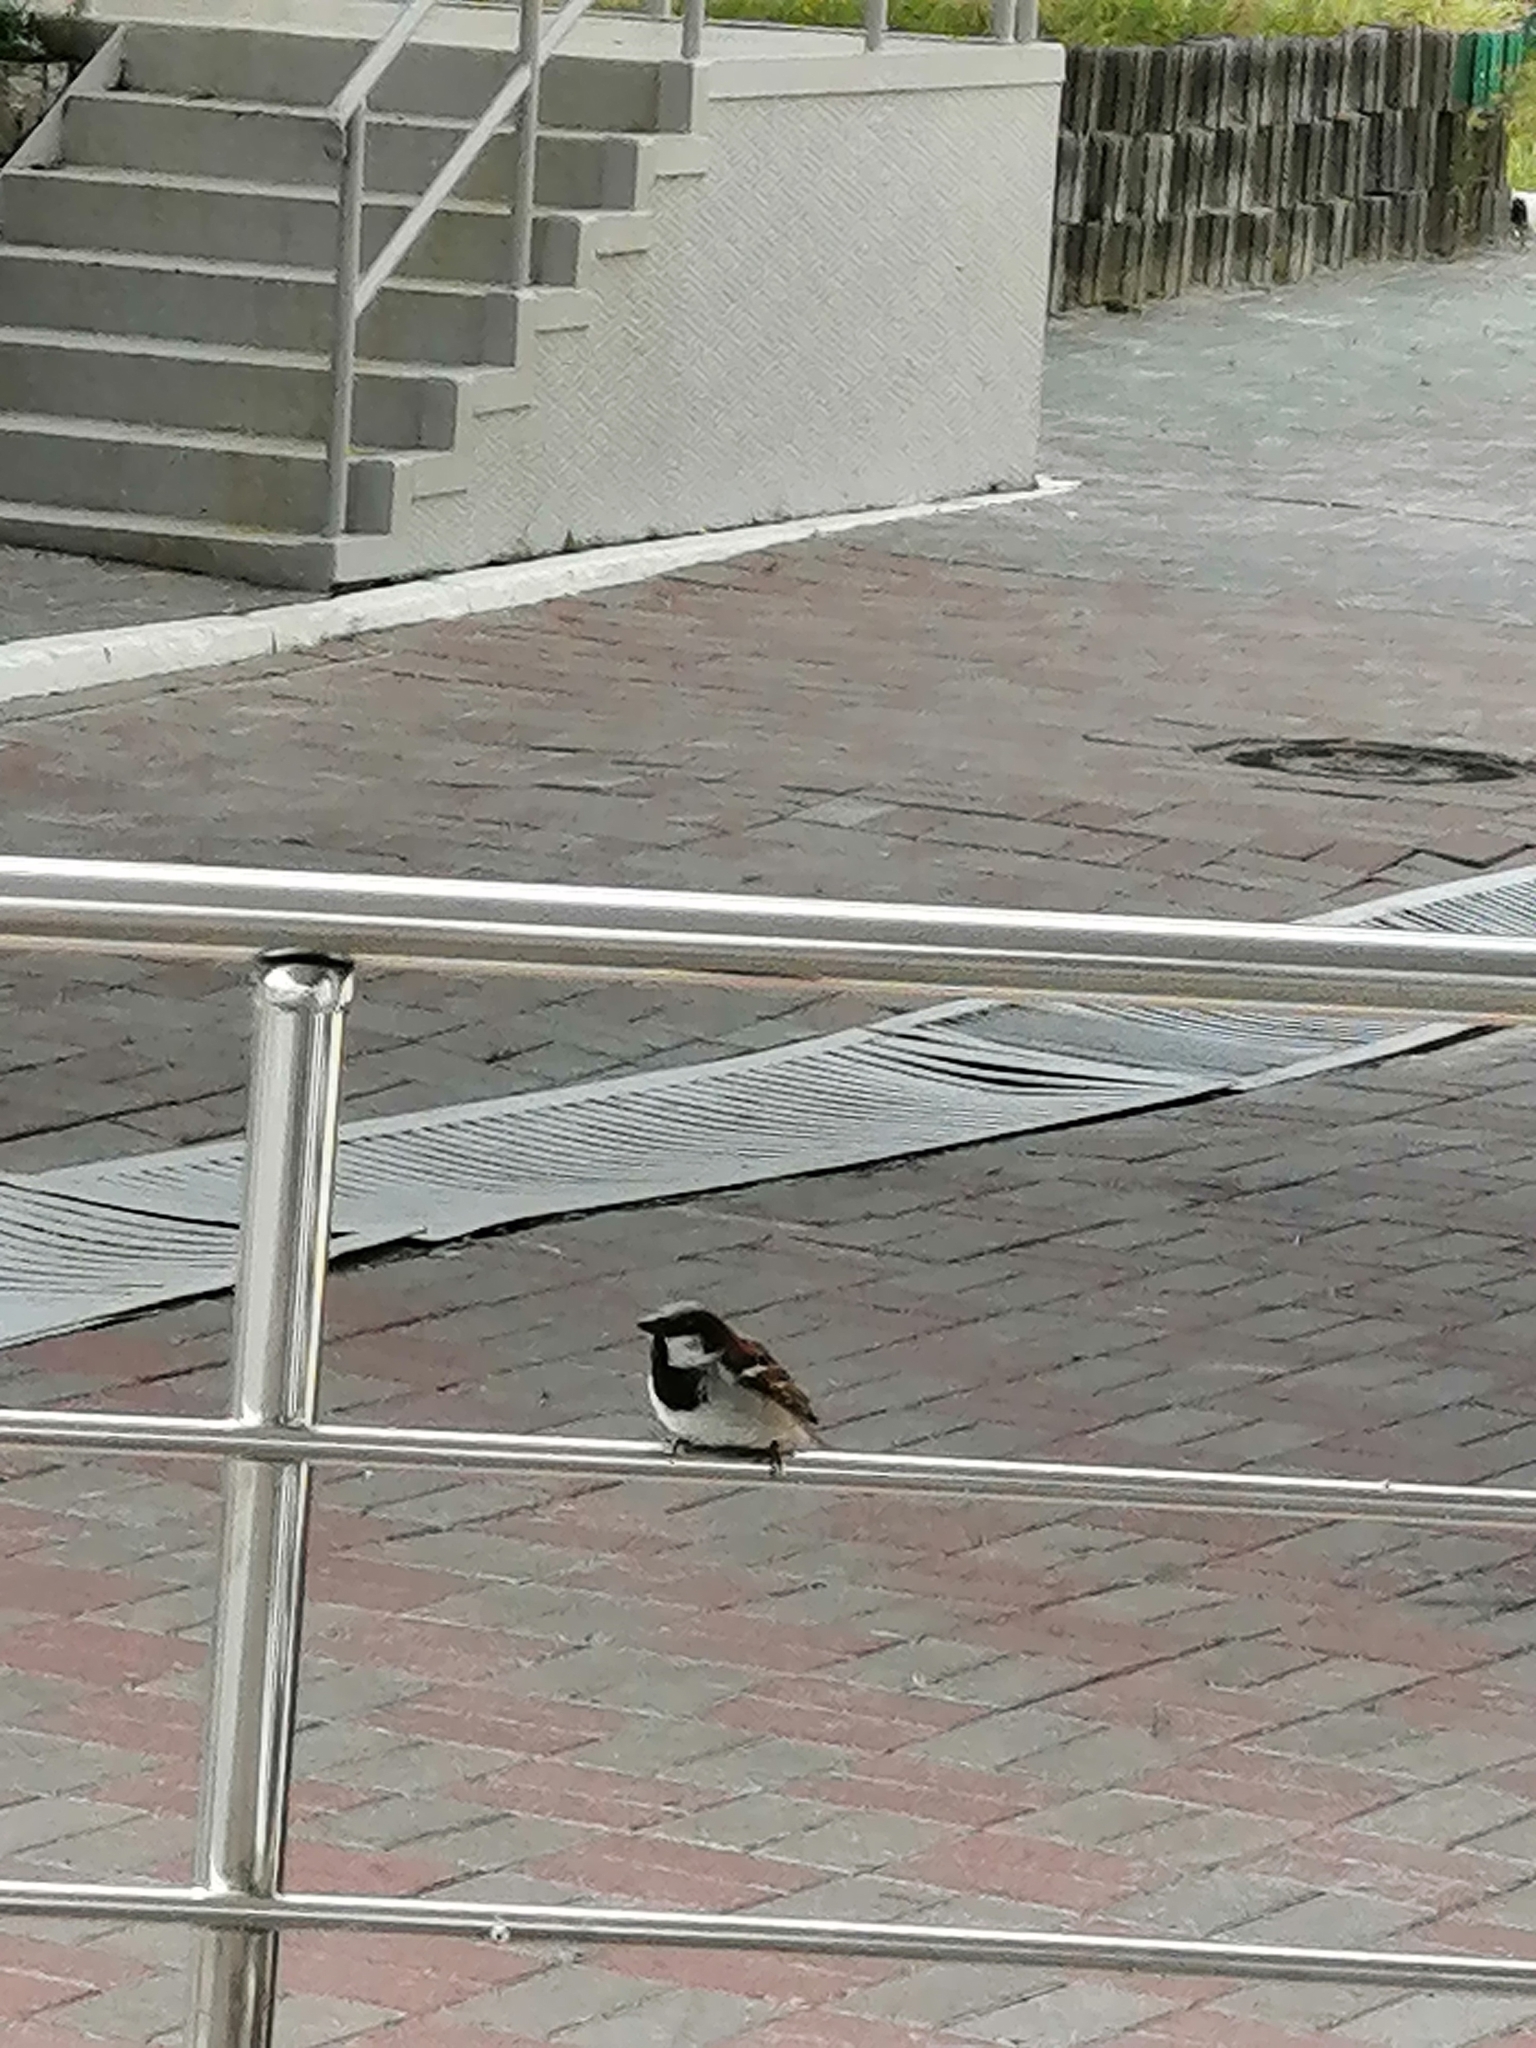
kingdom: Animalia
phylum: Chordata
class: Aves
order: Passeriformes
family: Passeridae
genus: Passer
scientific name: Passer domesticus
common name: House sparrow
